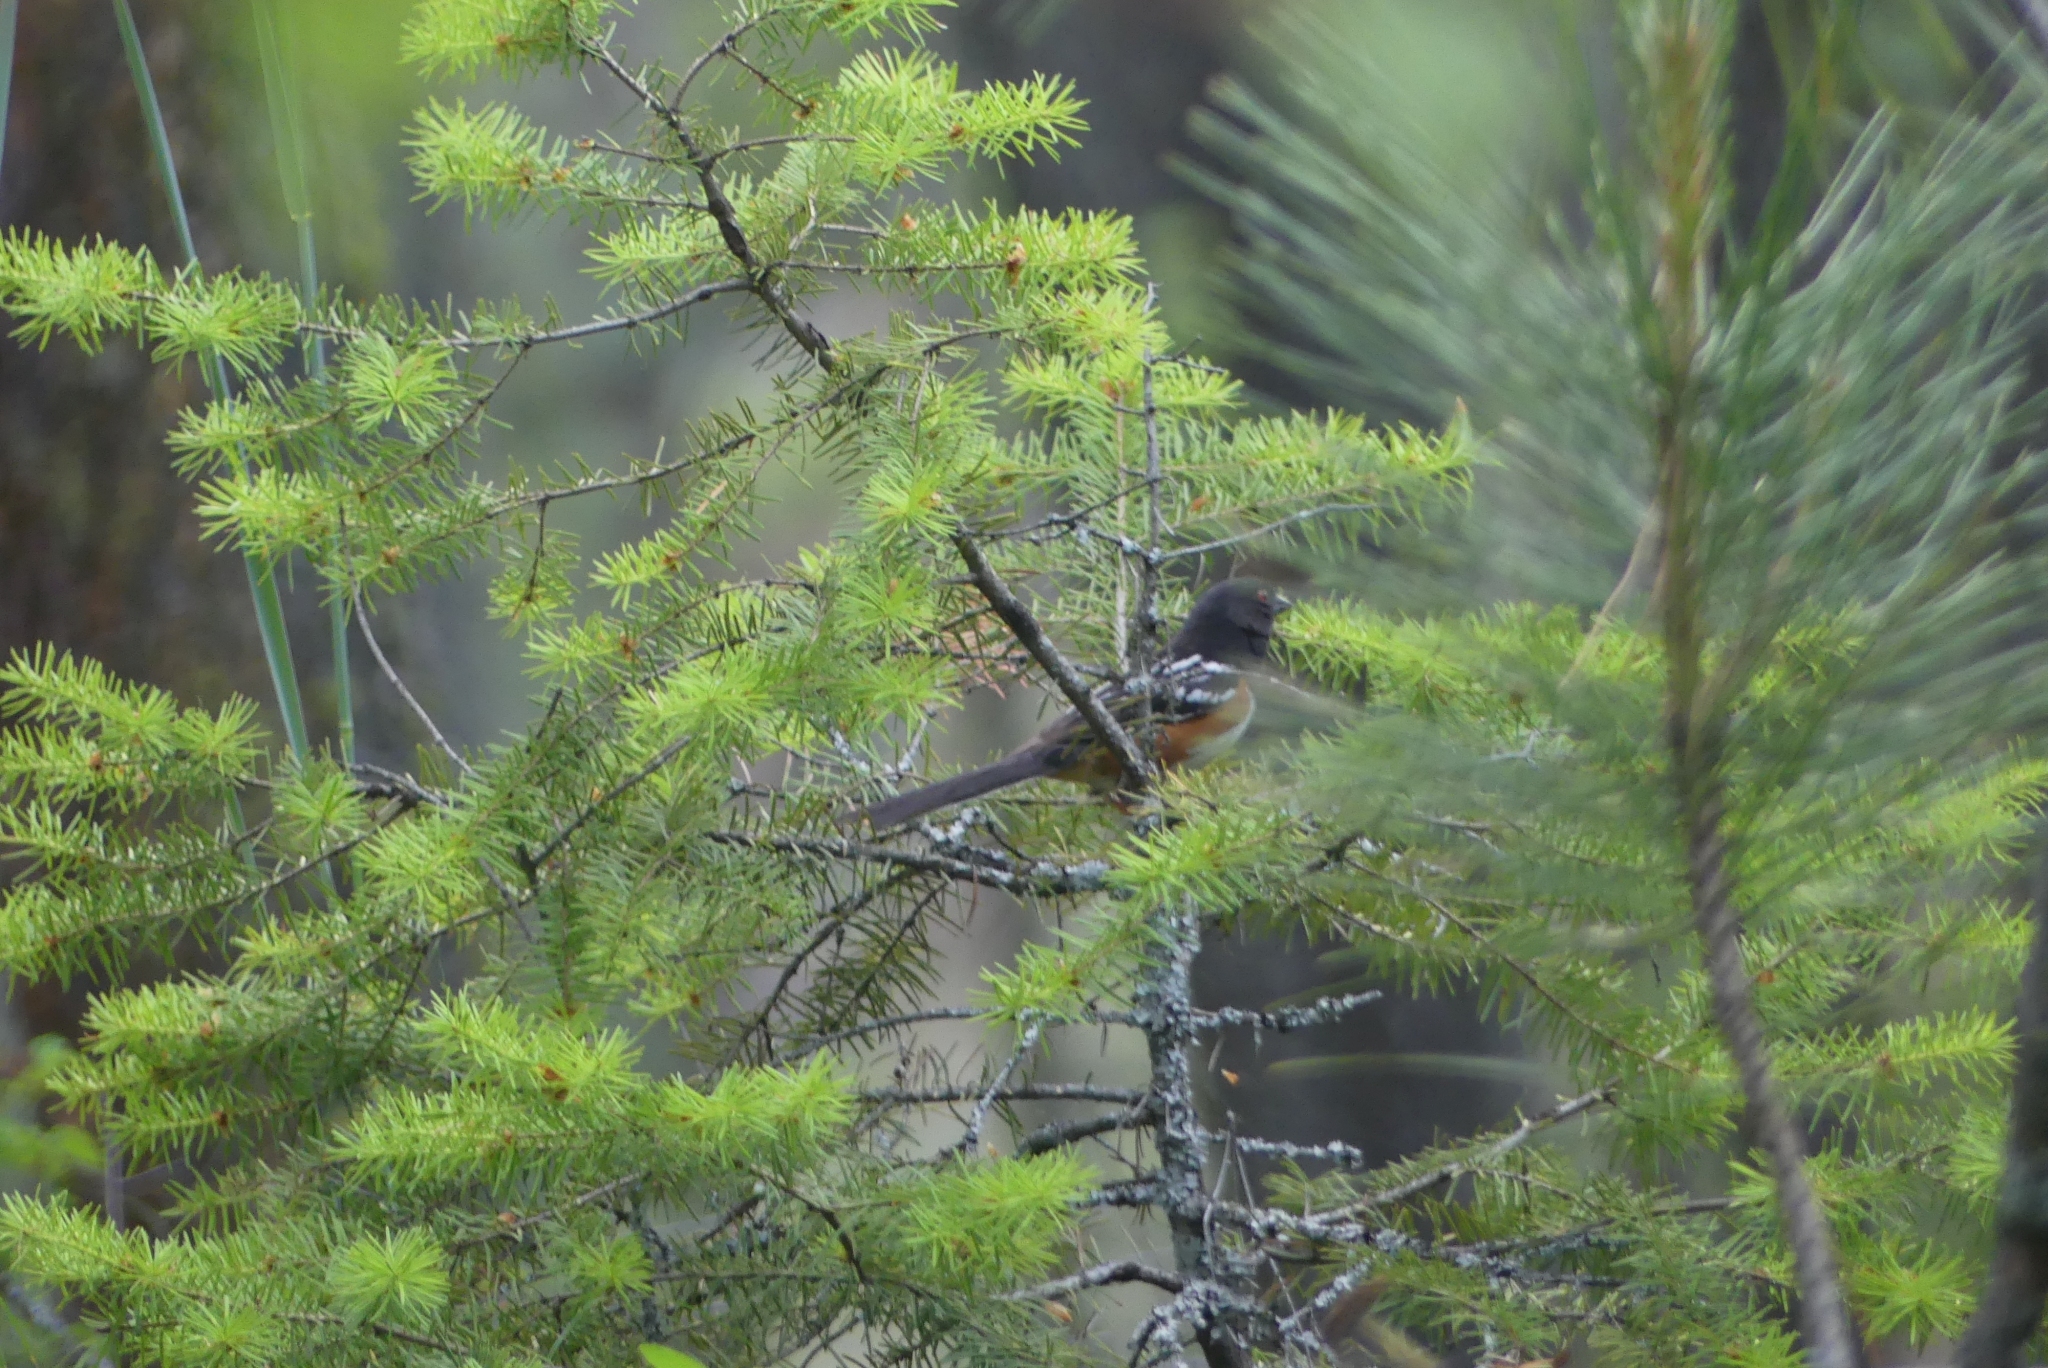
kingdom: Animalia
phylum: Chordata
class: Aves
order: Passeriformes
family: Passerellidae
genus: Pipilo
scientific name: Pipilo maculatus
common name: Spotted towhee
